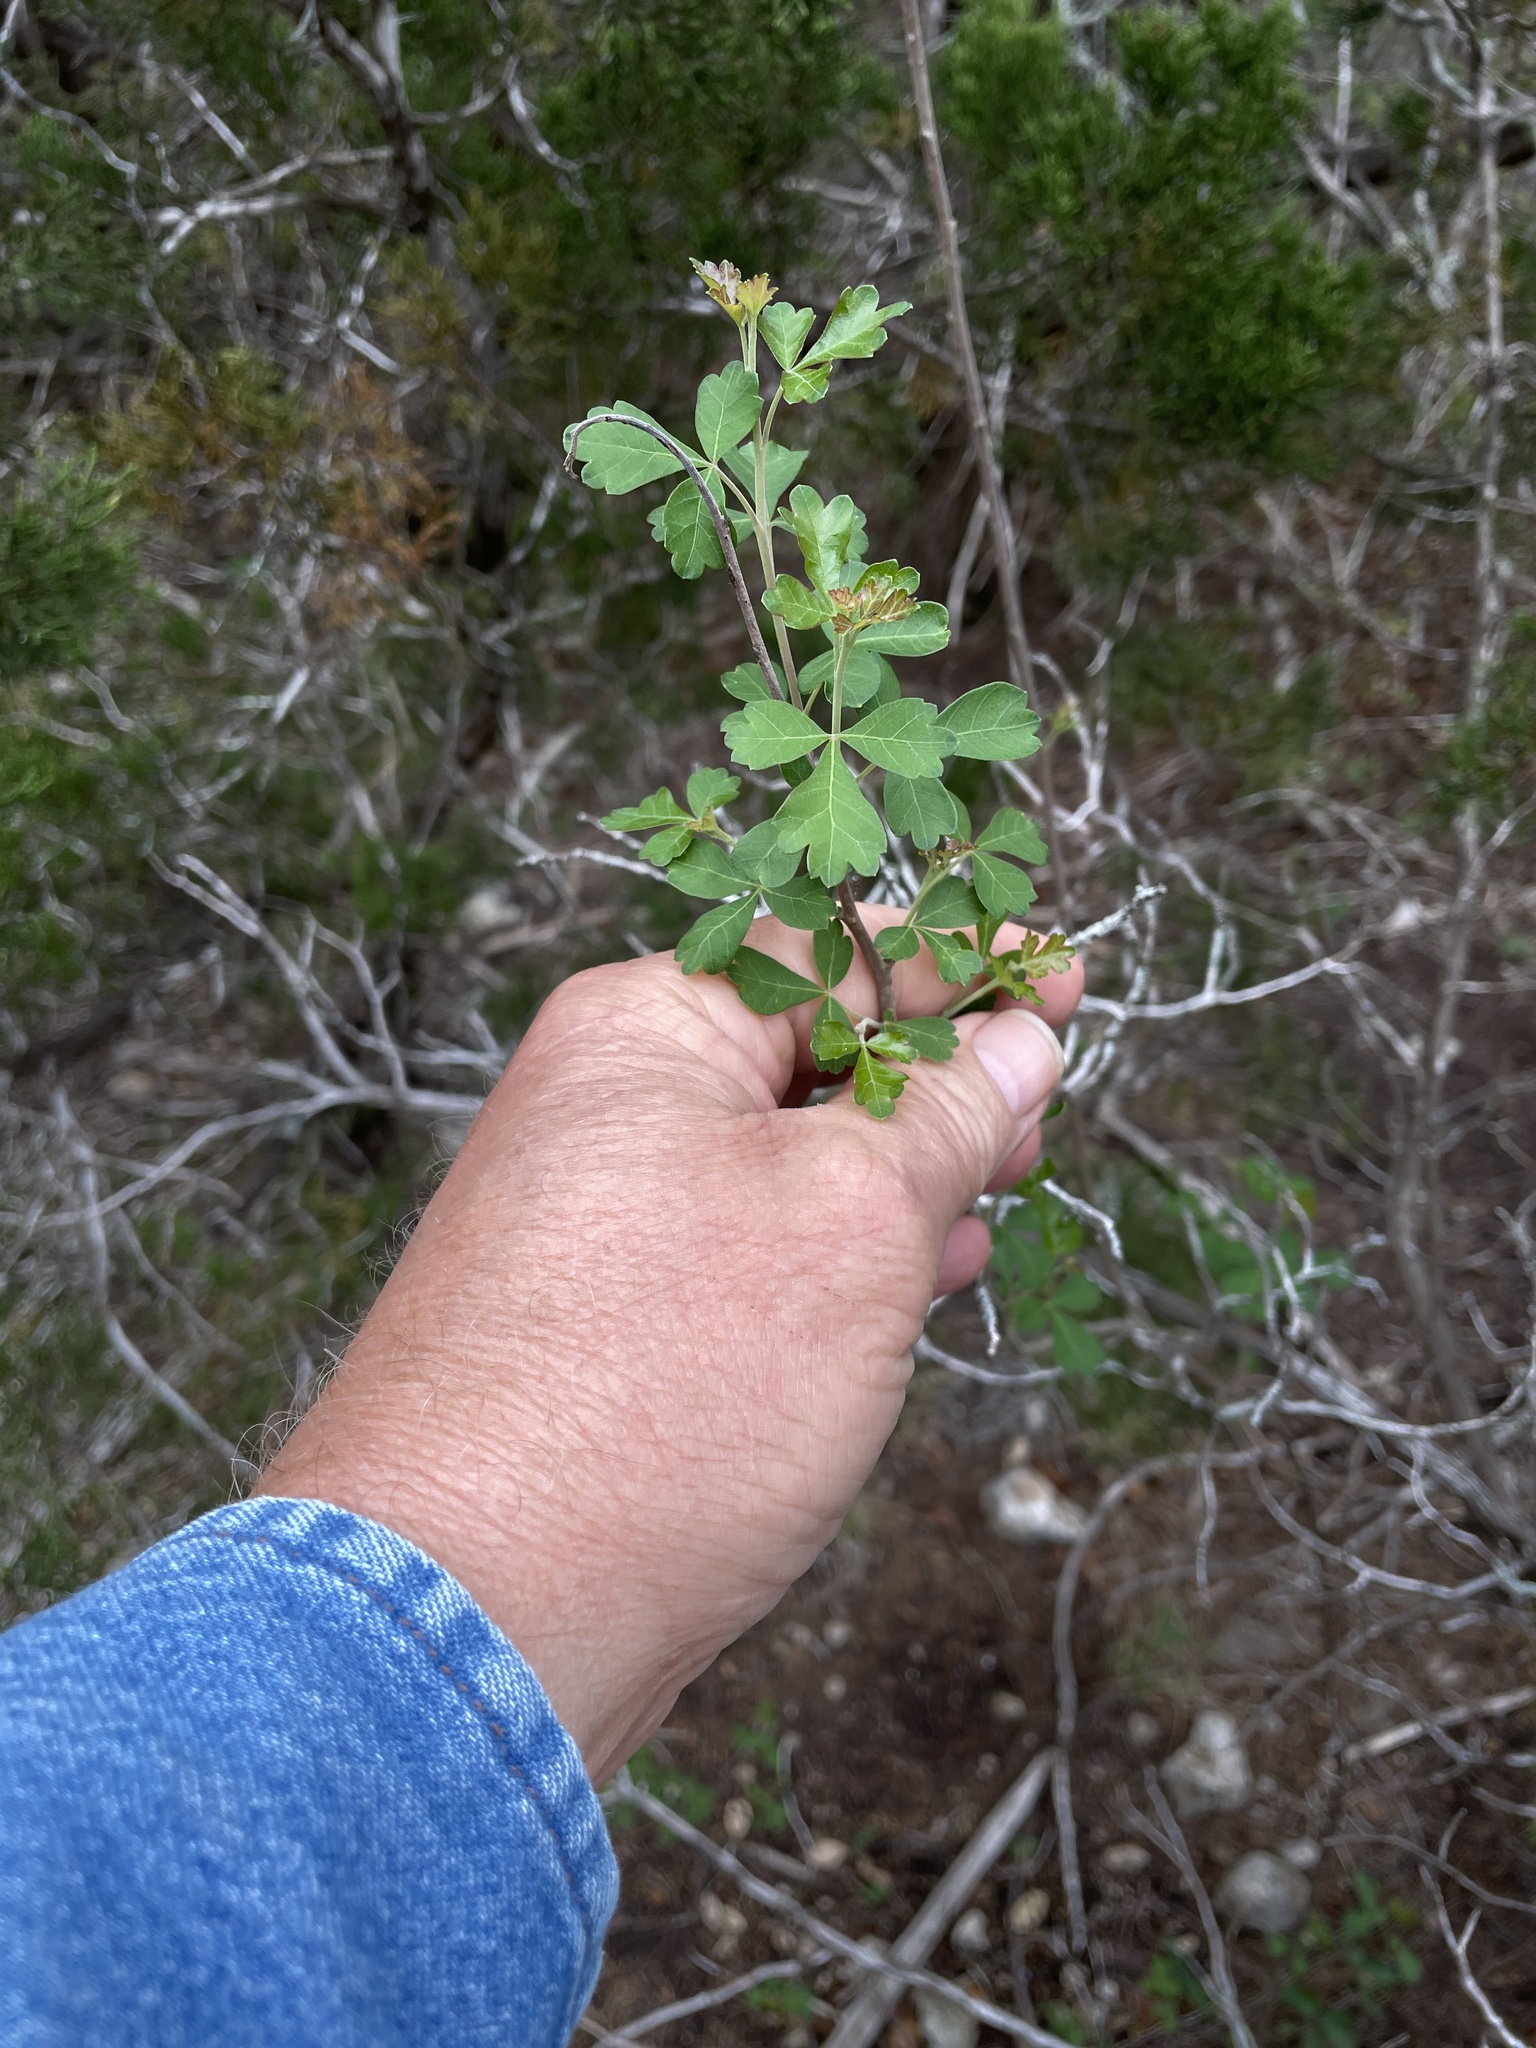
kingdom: Plantae
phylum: Tracheophyta
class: Magnoliopsida
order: Sapindales
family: Anacardiaceae
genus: Rhus
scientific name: Rhus aromatica
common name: Aromatic sumac
